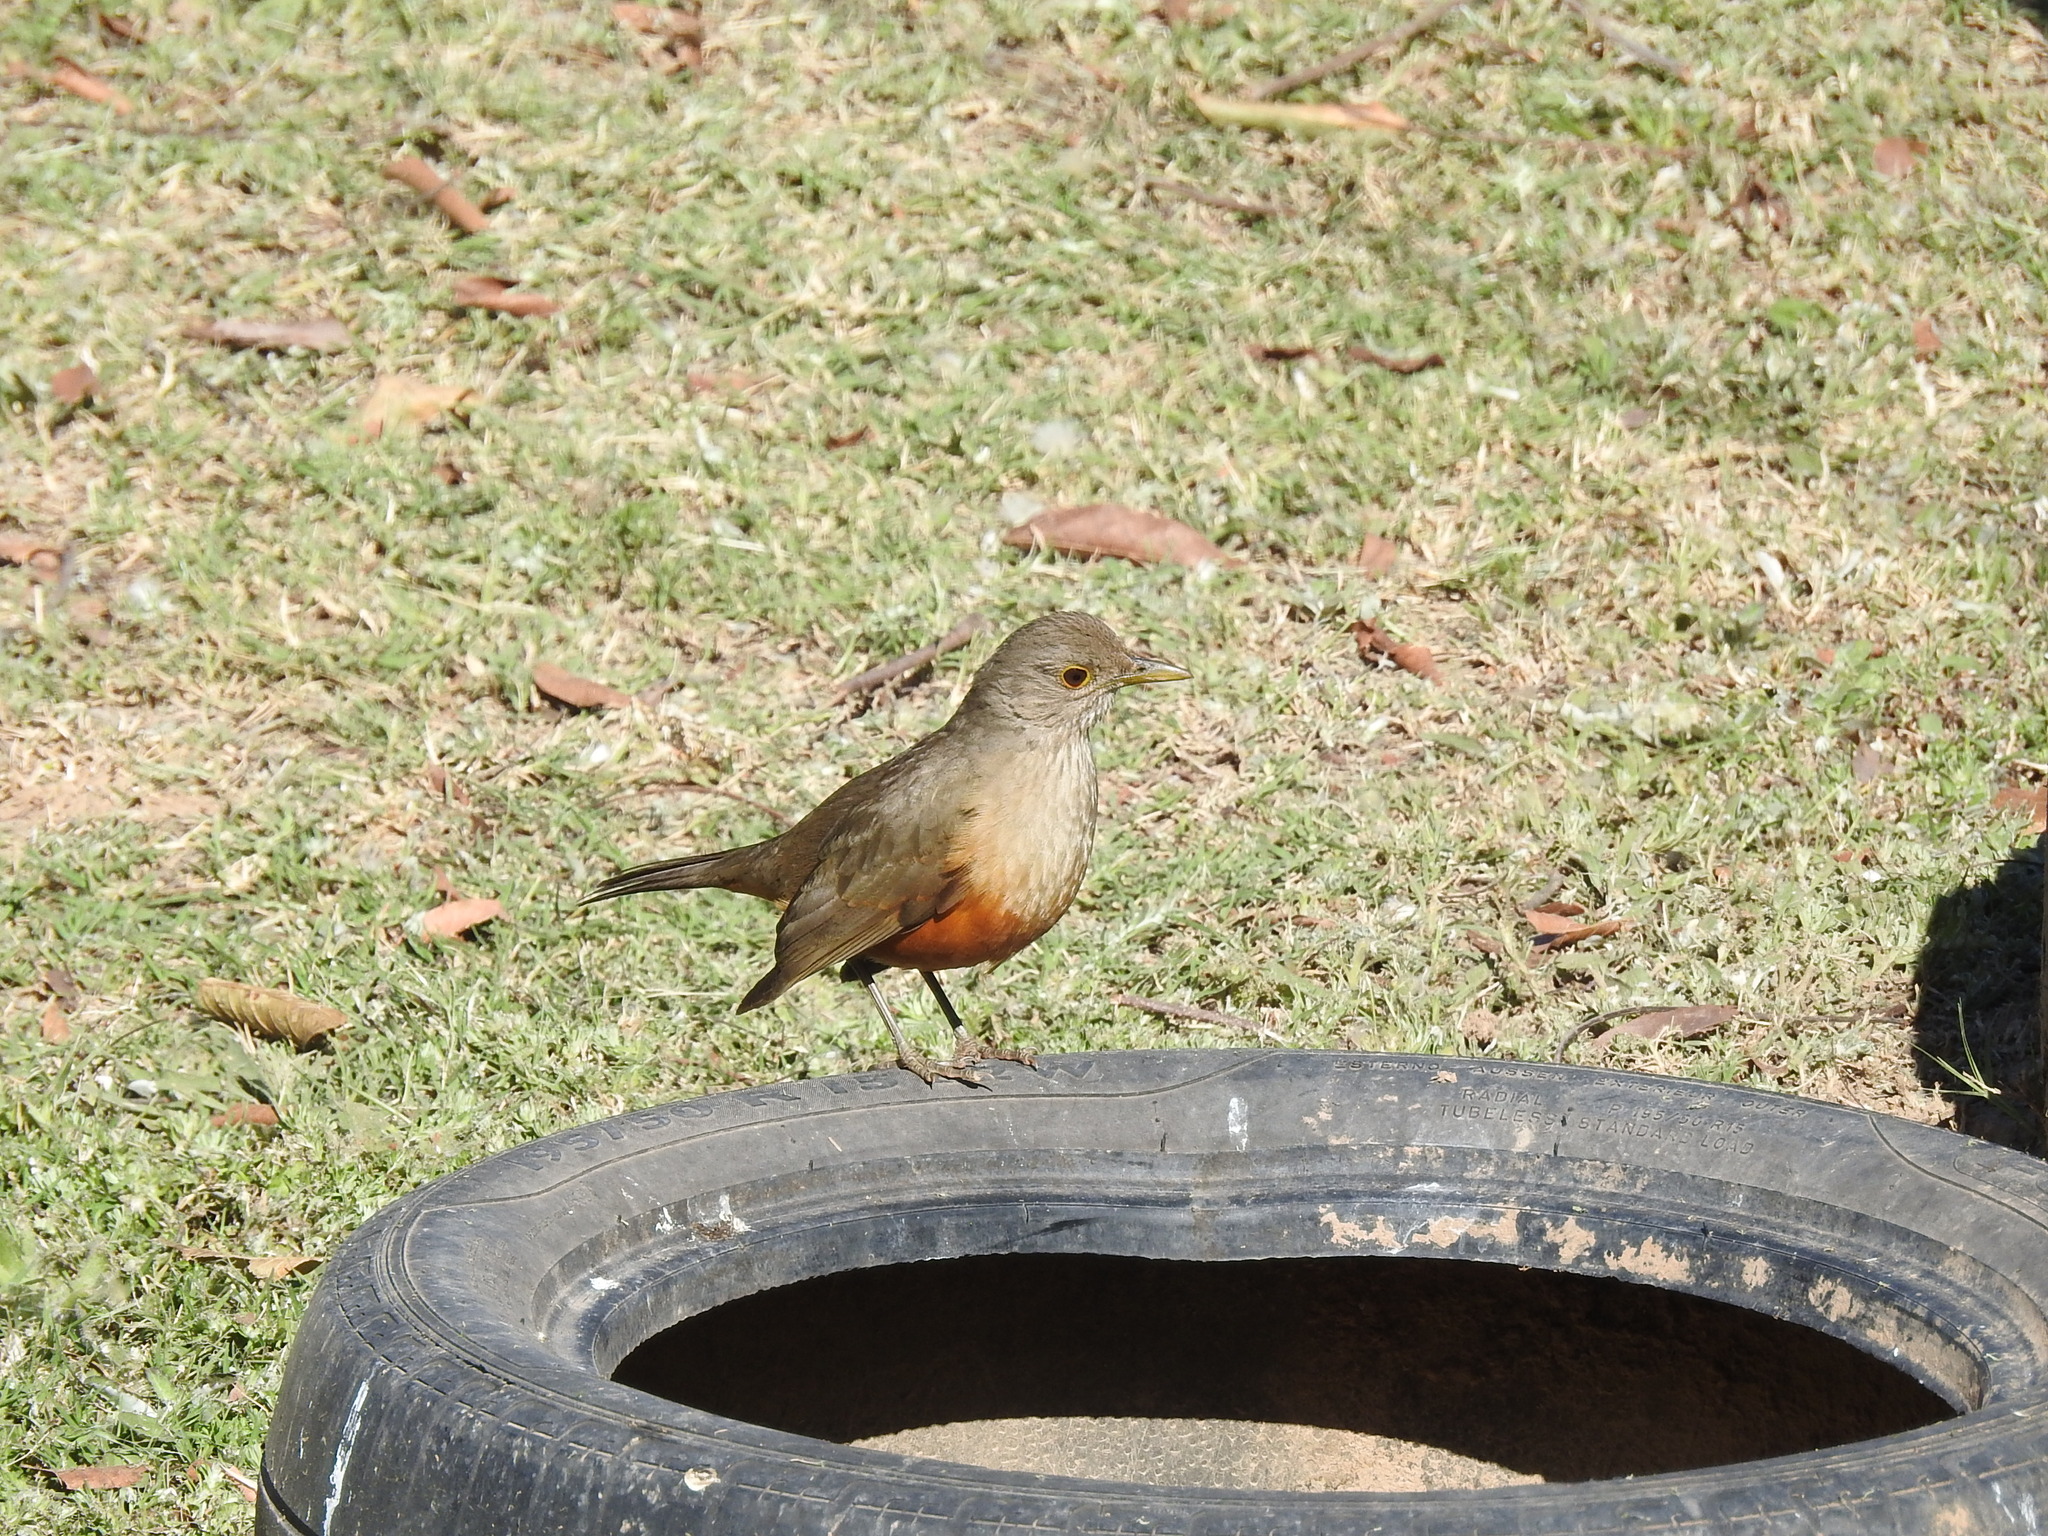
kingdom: Animalia
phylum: Chordata
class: Aves
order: Passeriformes
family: Turdidae
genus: Turdus
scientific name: Turdus rufiventris
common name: Rufous-bellied thrush
